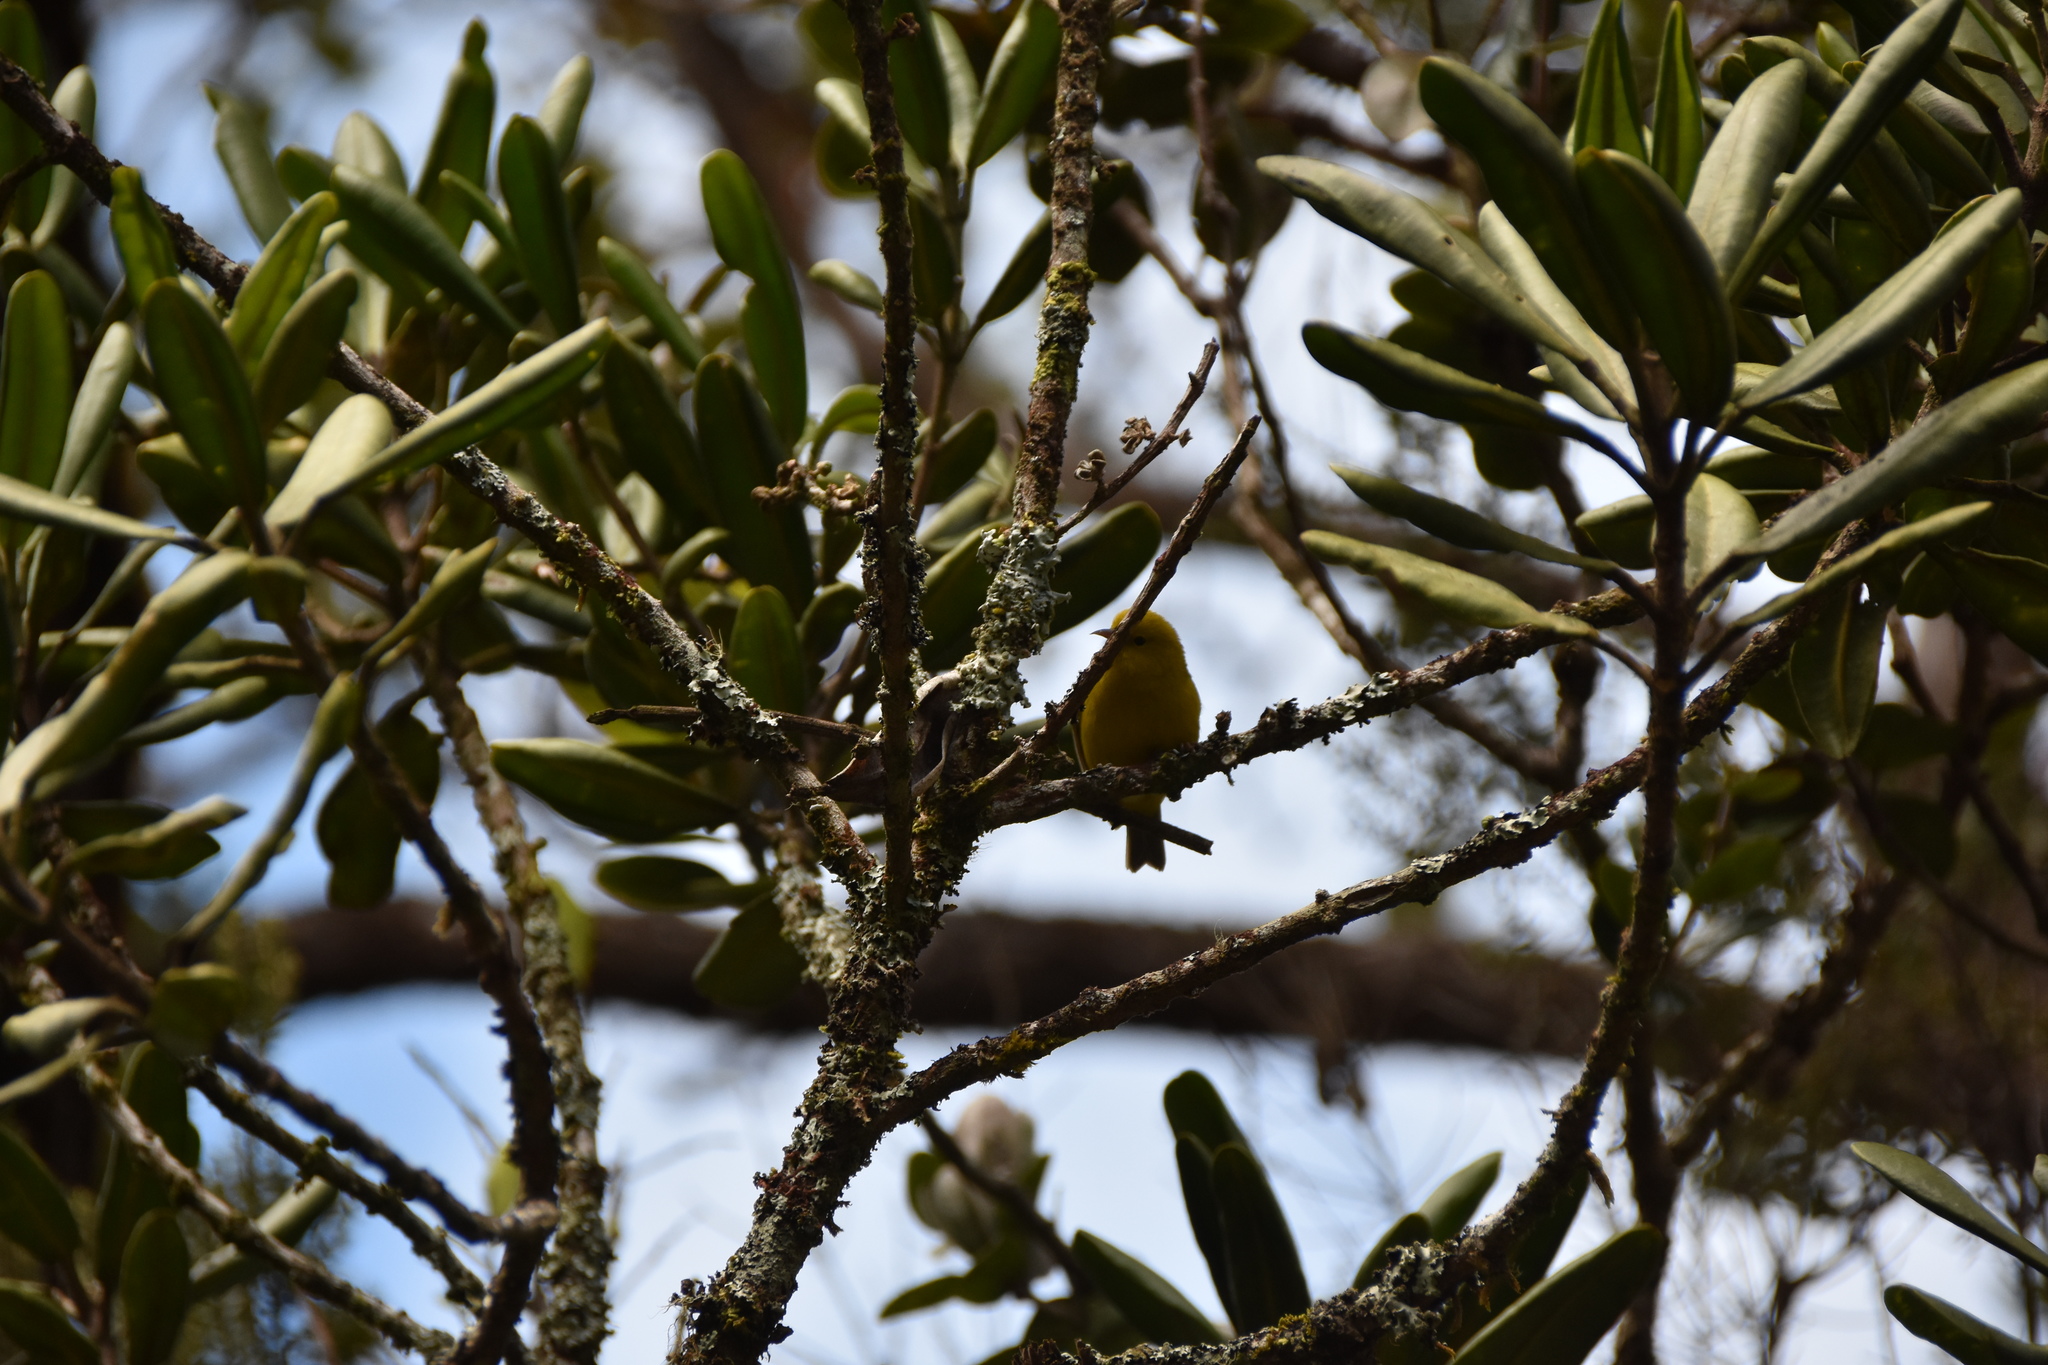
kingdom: Animalia
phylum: Chordata
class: Aves
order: Passeriformes
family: Fringillidae
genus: Magumma
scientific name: Magumma parva
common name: Anianiau
